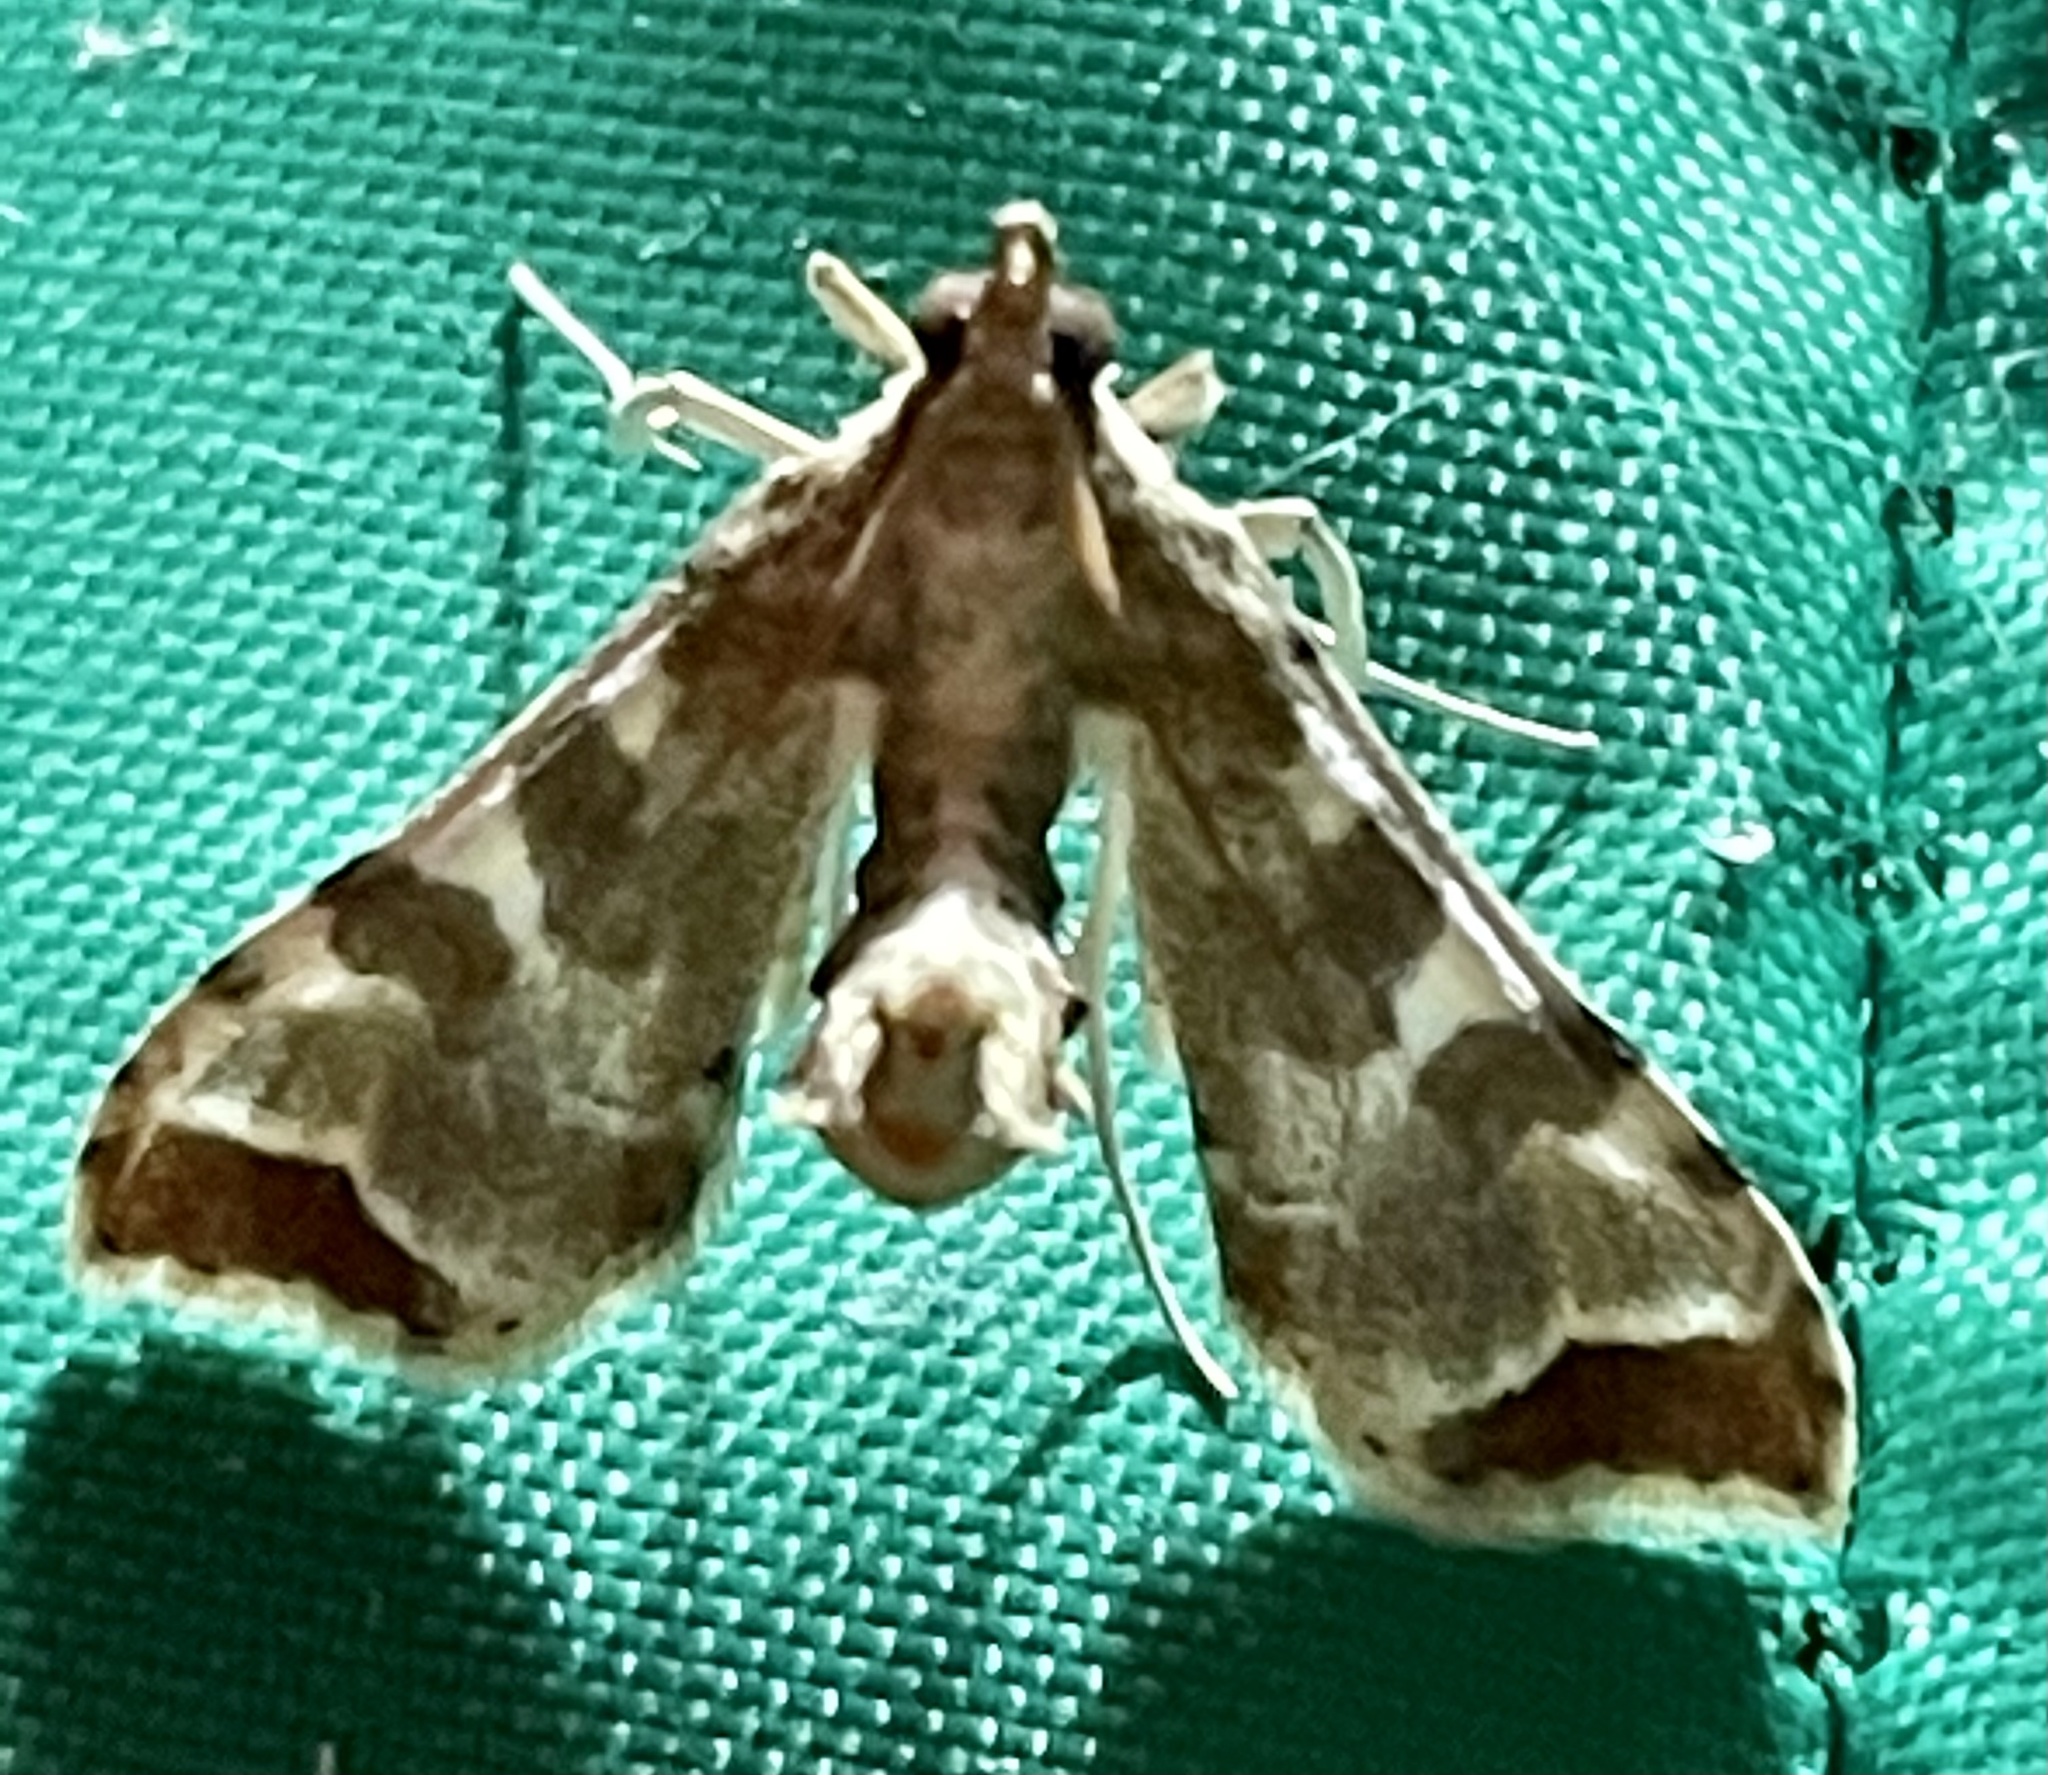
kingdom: Animalia
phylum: Arthropoda
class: Insecta
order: Lepidoptera
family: Crambidae
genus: Sceliodes
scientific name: Sceliodes cordalis
